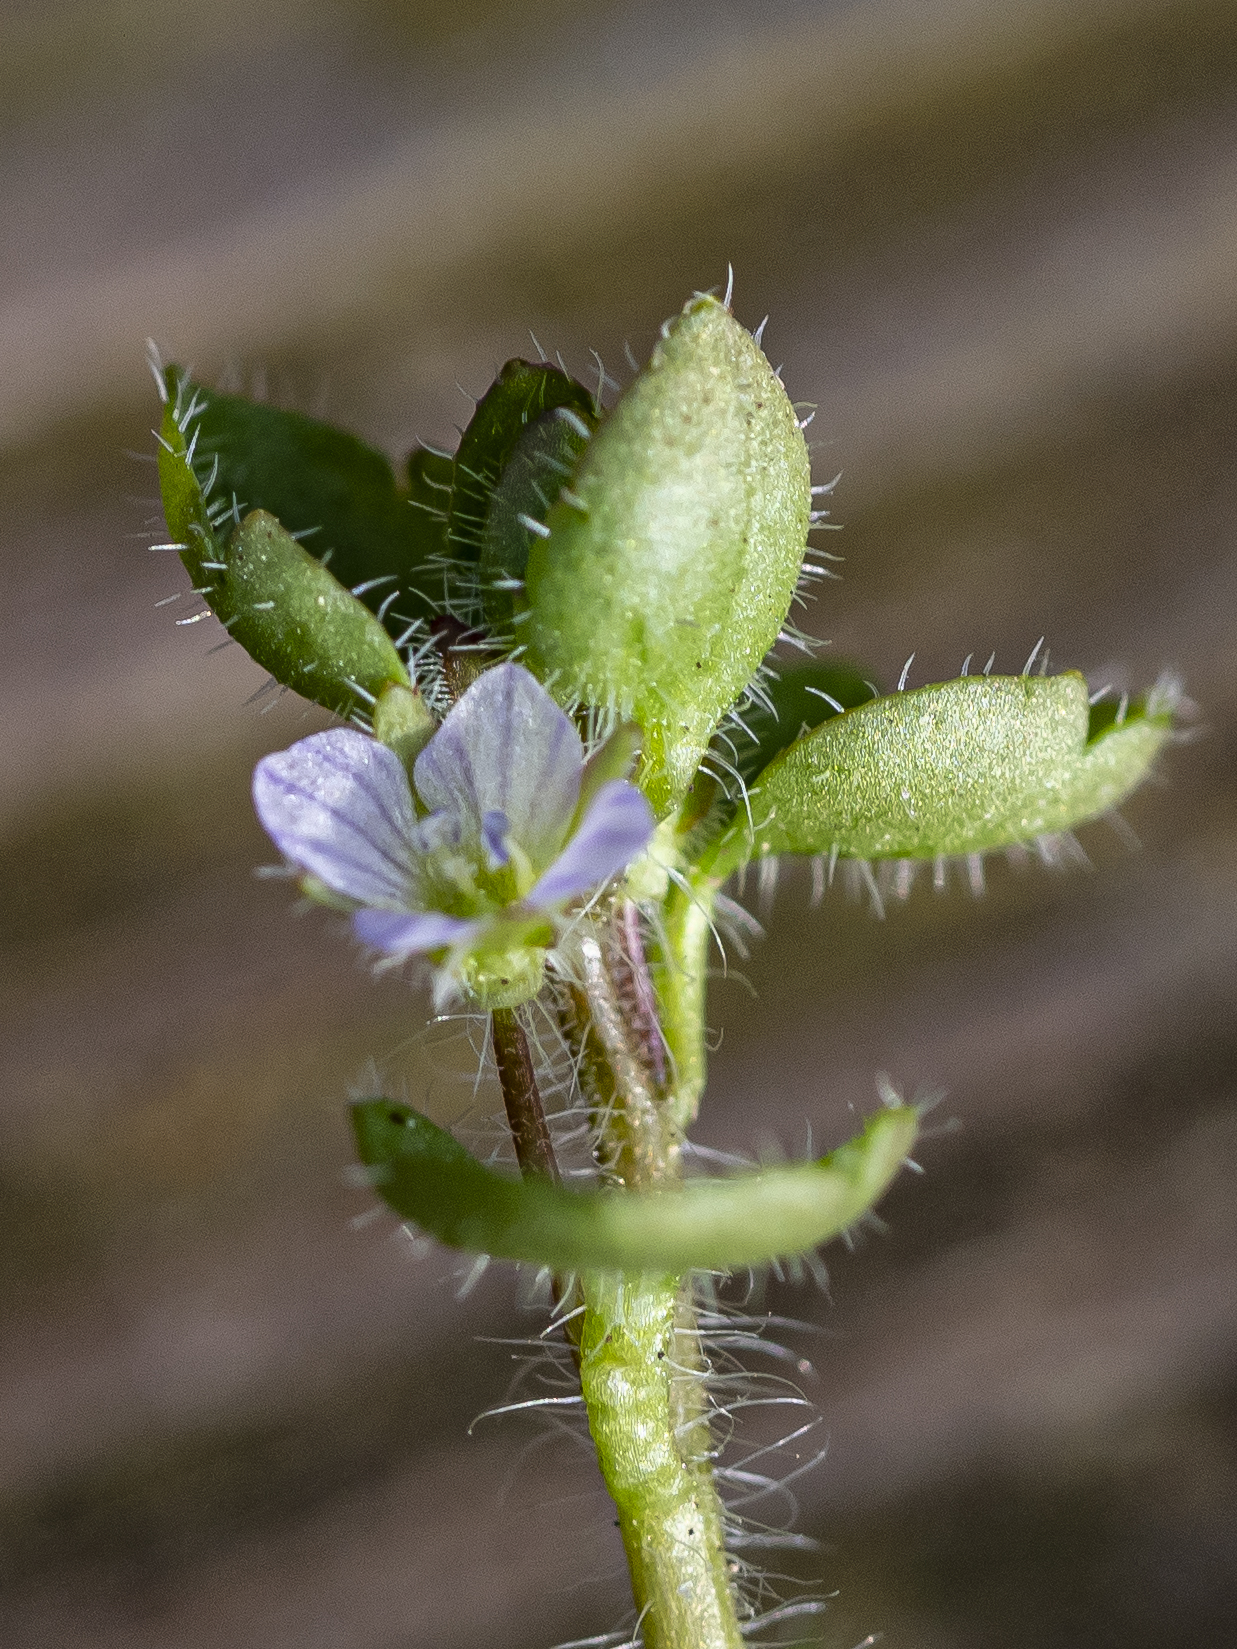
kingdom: Plantae
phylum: Tracheophyta
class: Magnoliopsida
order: Lamiales
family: Plantaginaceae
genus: Veronica
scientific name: Veronica sublobata
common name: False ivy-leaved speedwell
